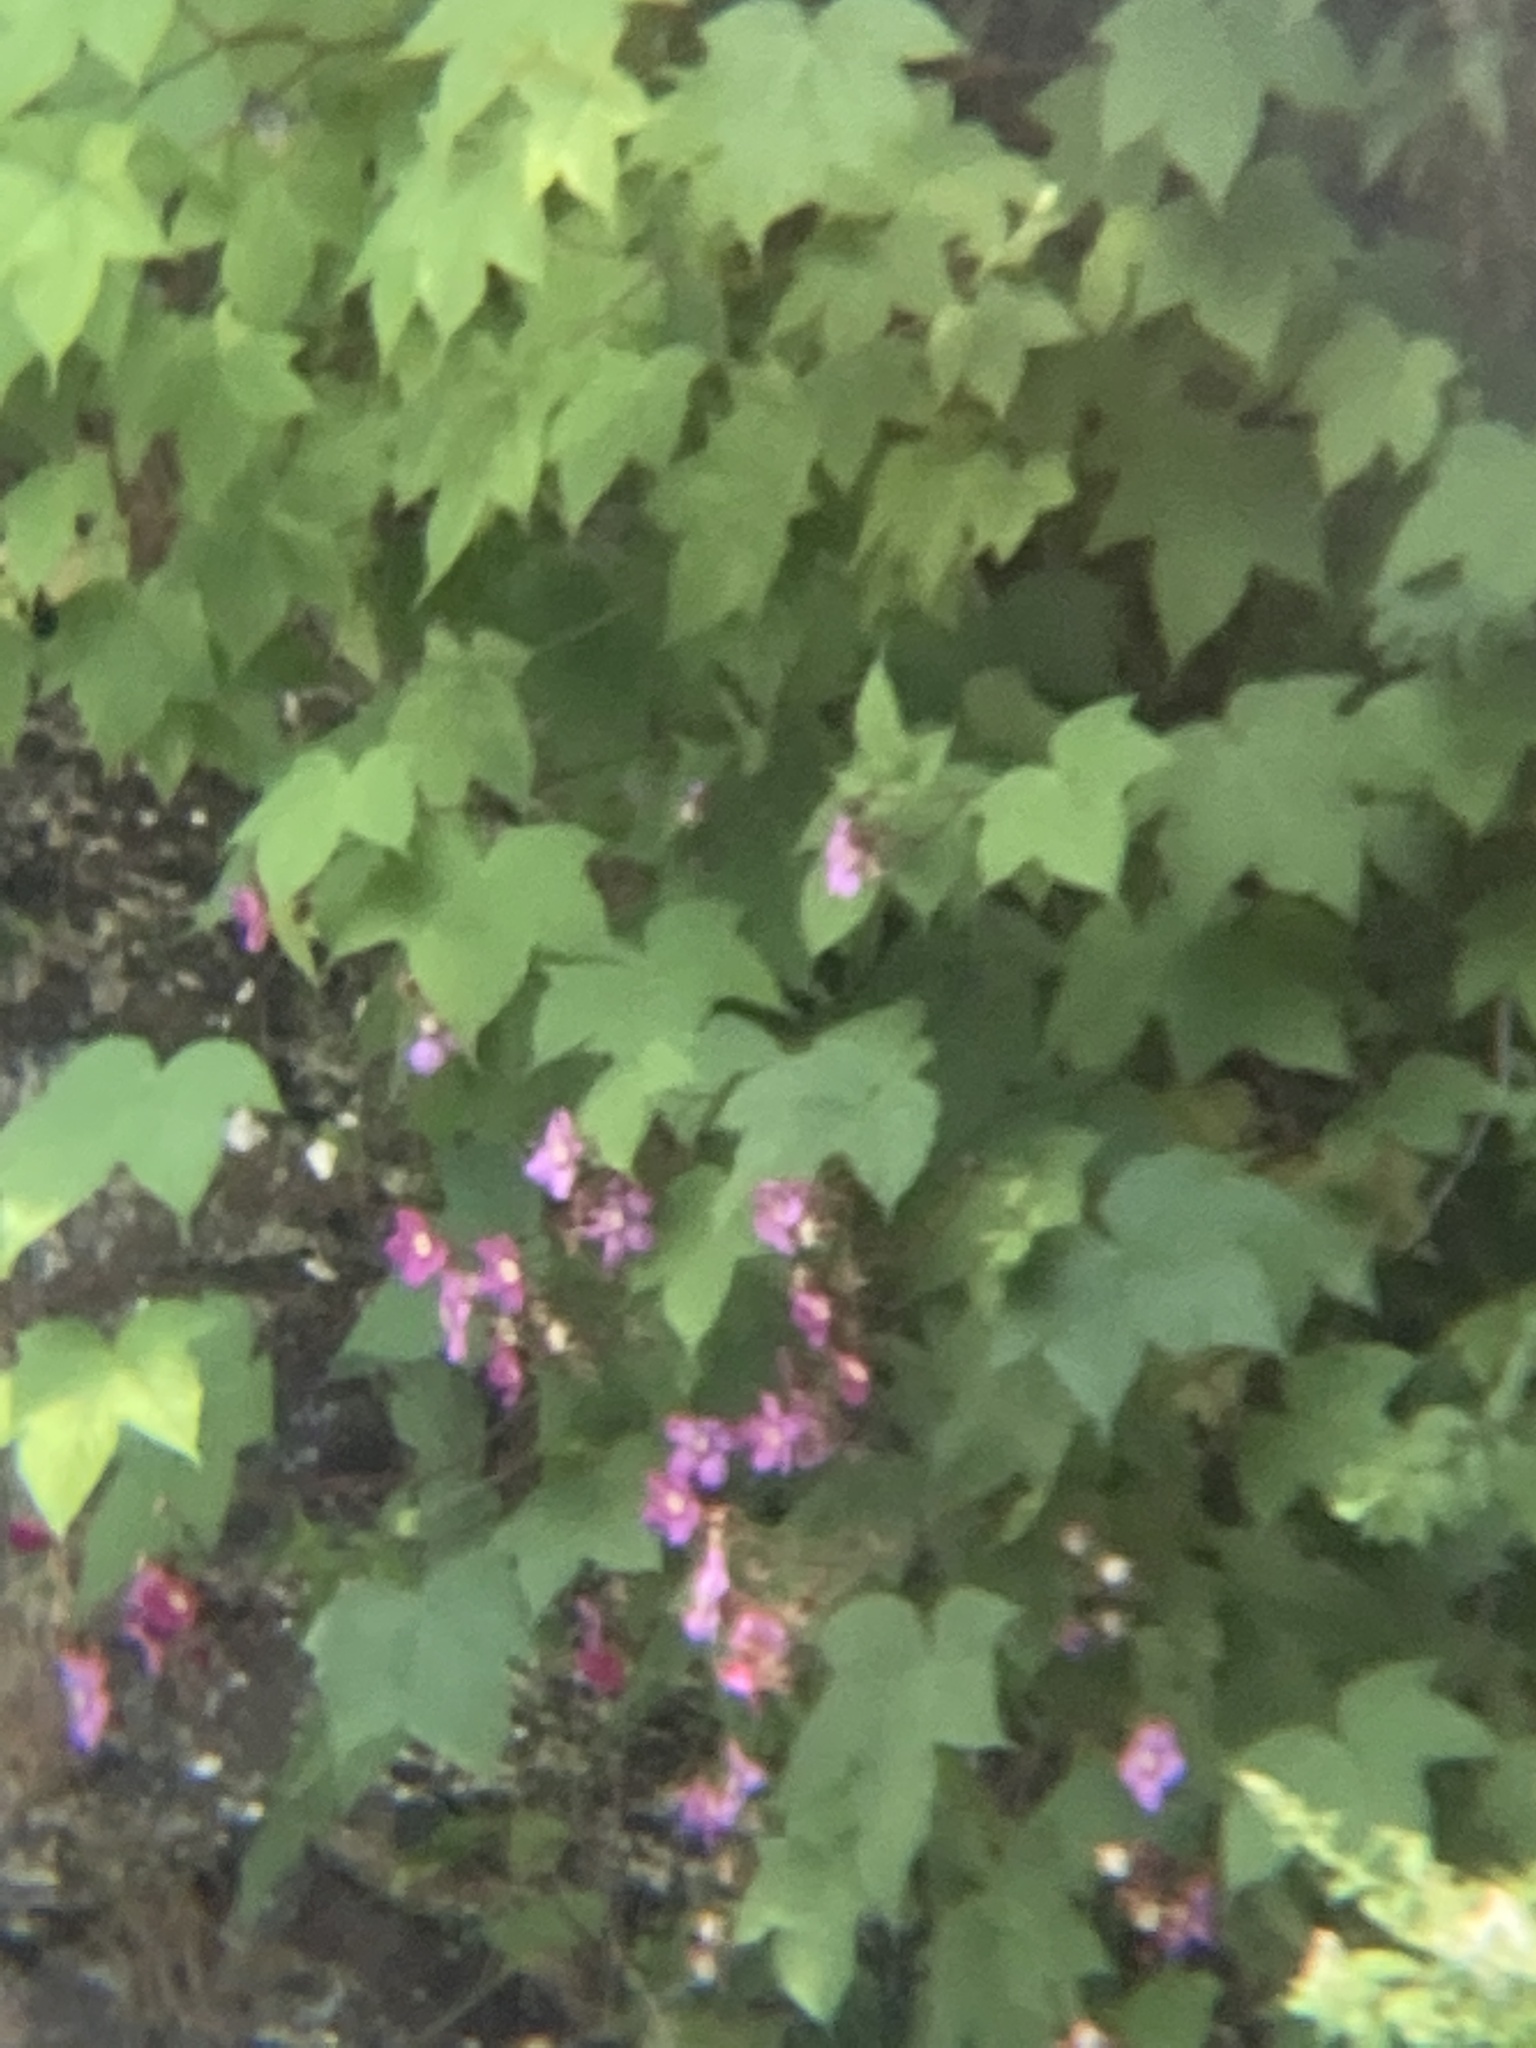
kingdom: Plantae
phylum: Tracheophyta
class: Magnoliopsida
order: Rosales
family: Rosaceae
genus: Rubus
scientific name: Rubus odoratus
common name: Purple-flowered raspberry
